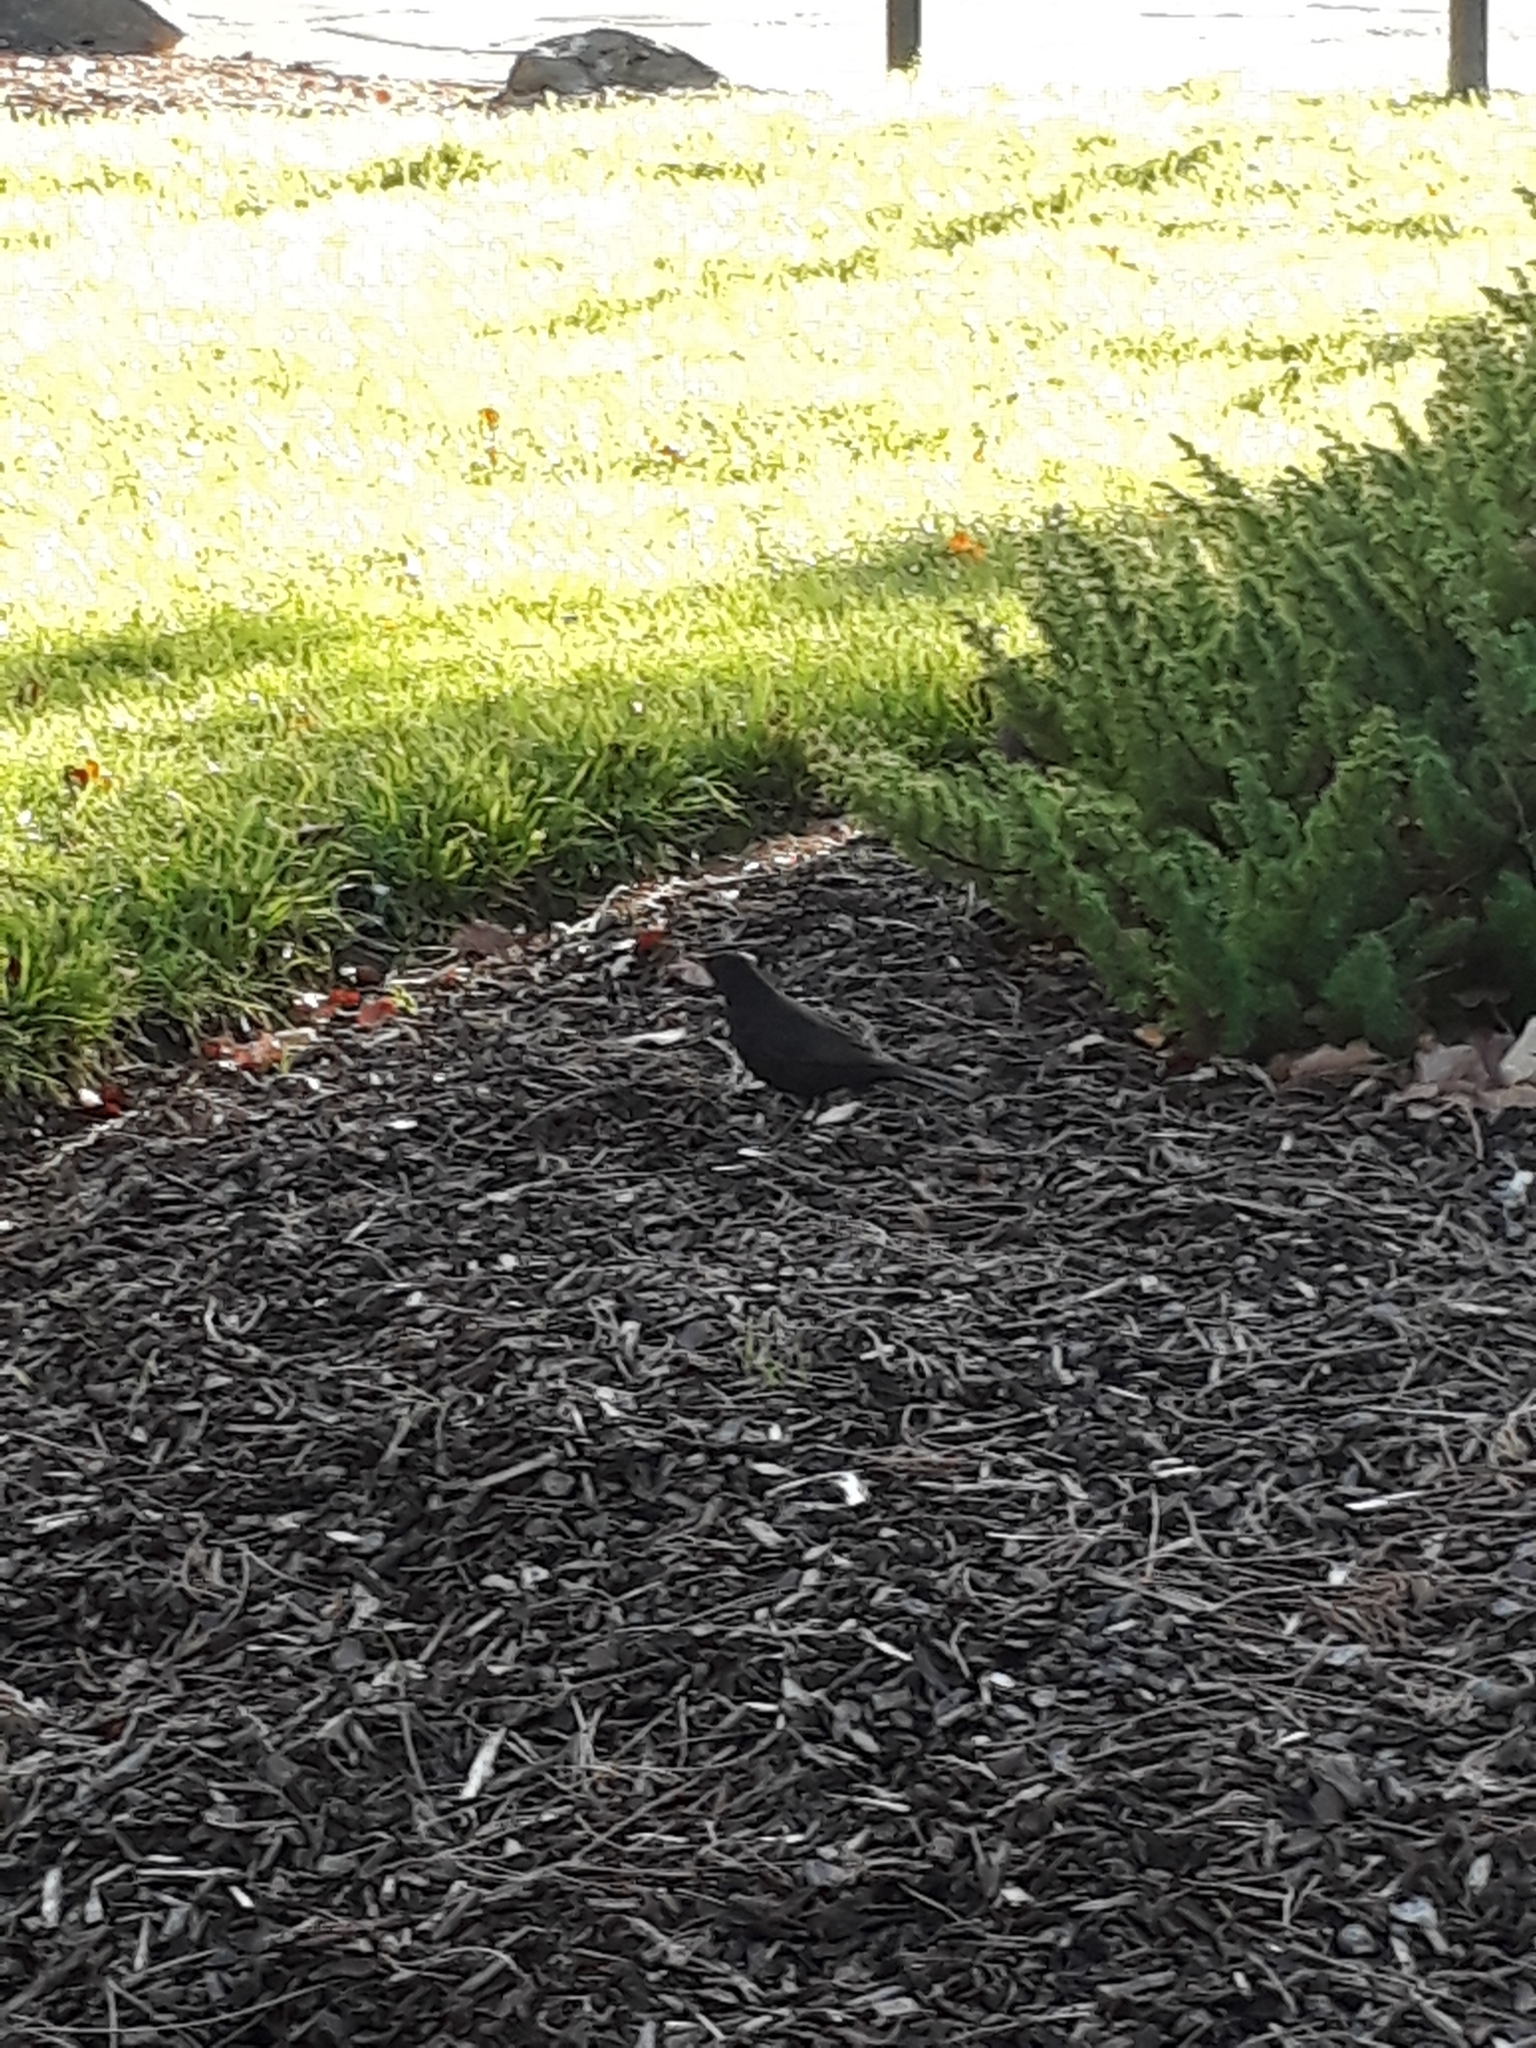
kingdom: Animalia
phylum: Chordata
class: Aves
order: Passeriformes
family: Turdidae
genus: Turdus
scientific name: Turdus merula
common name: Common blackbird
